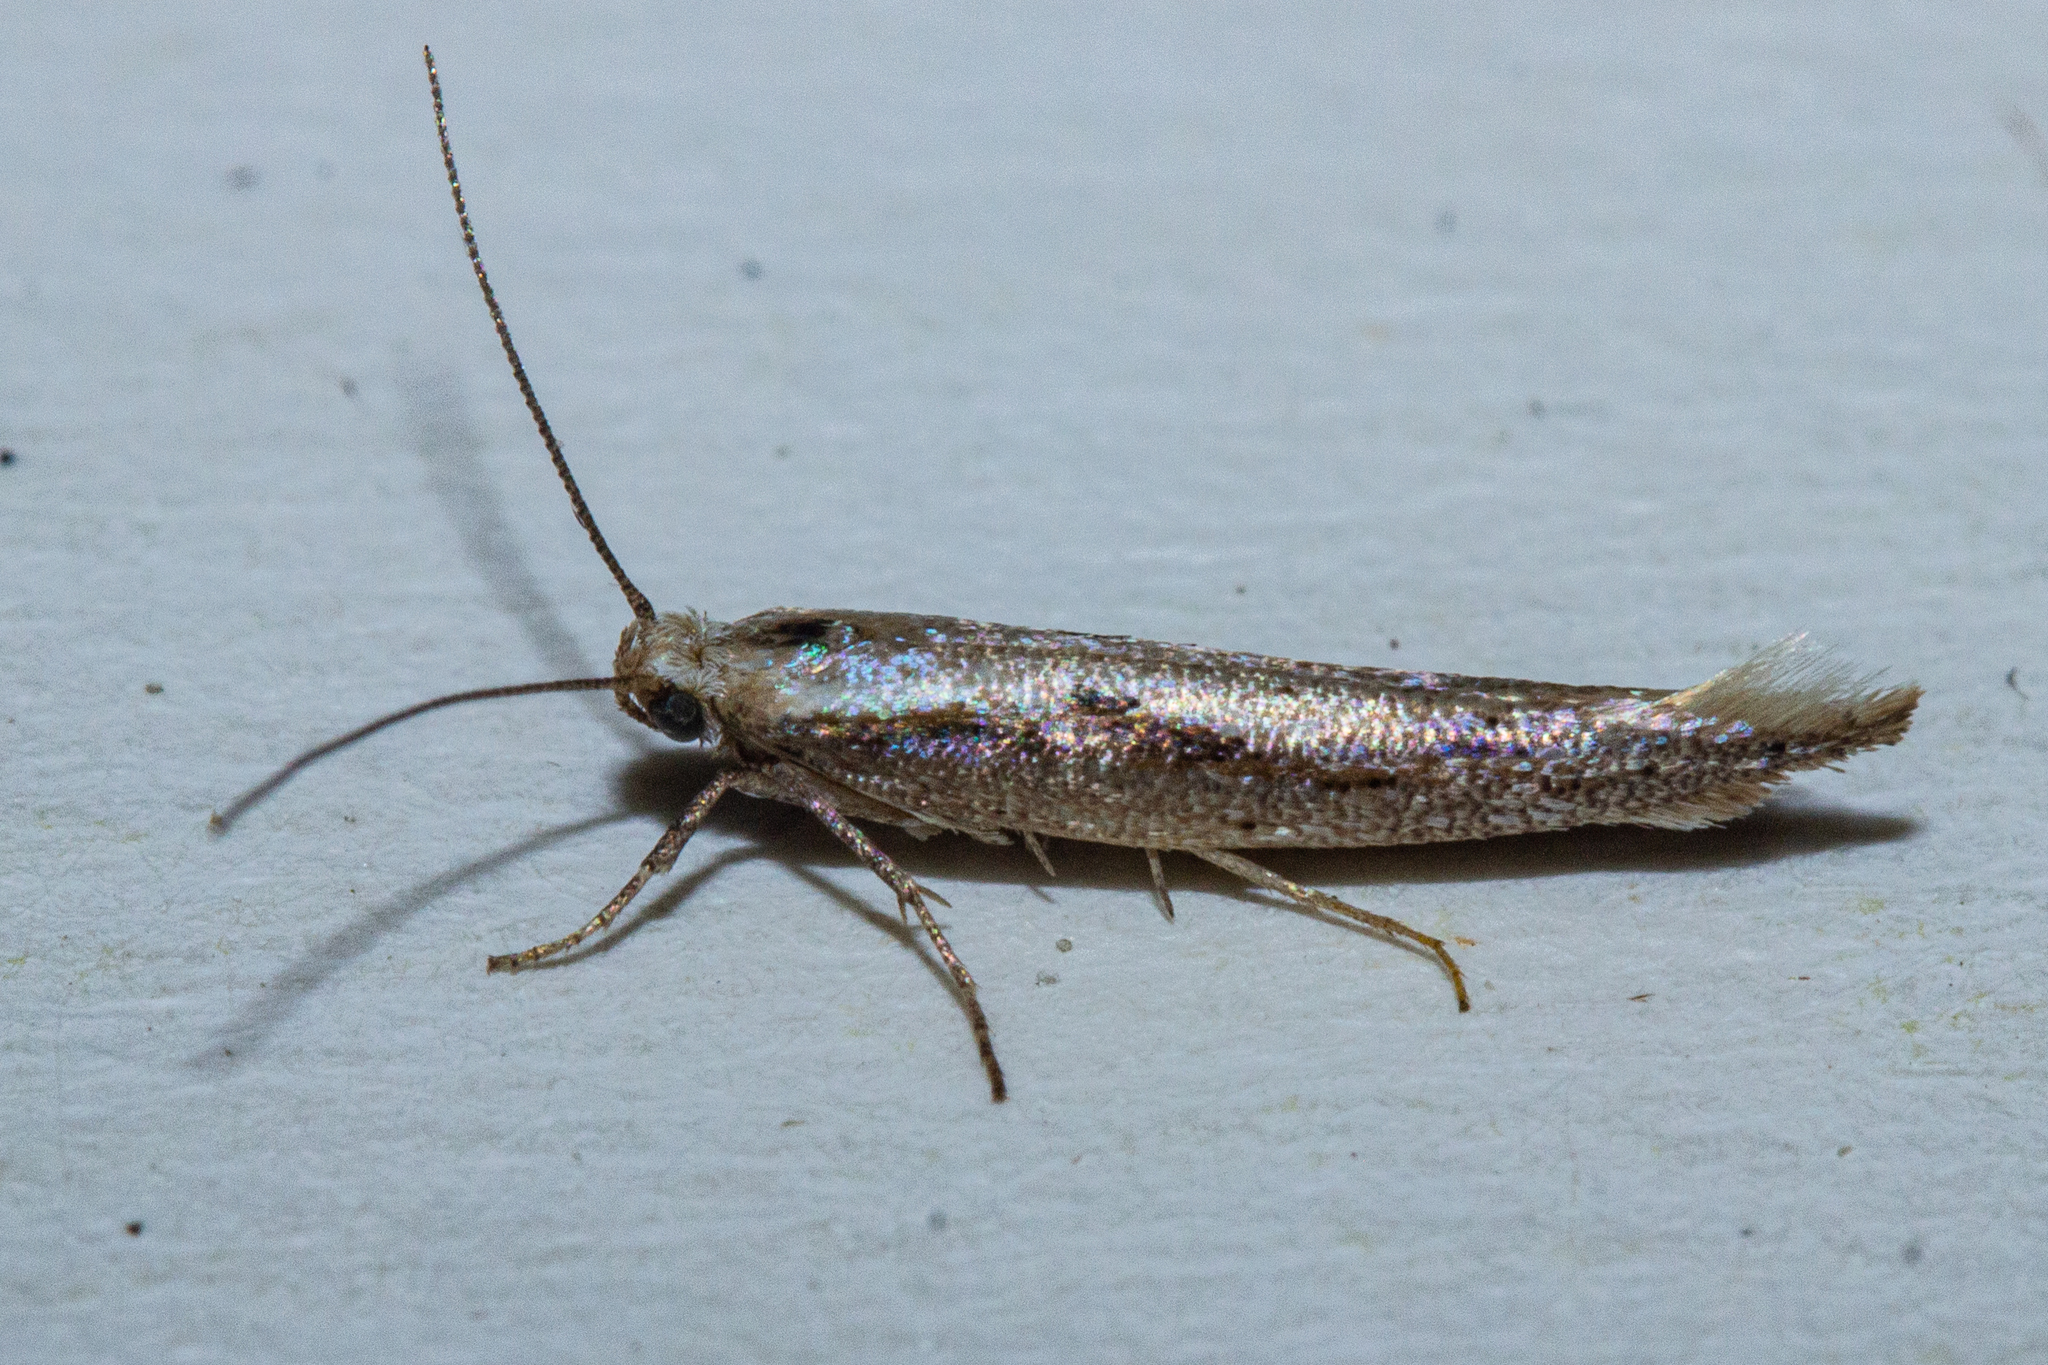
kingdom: Animalia
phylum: Arthropoda
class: Insecta
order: Lepidoptera
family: Glyphipterigidae
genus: Chrysorthenches
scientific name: Chrysorthenches porphyritis
